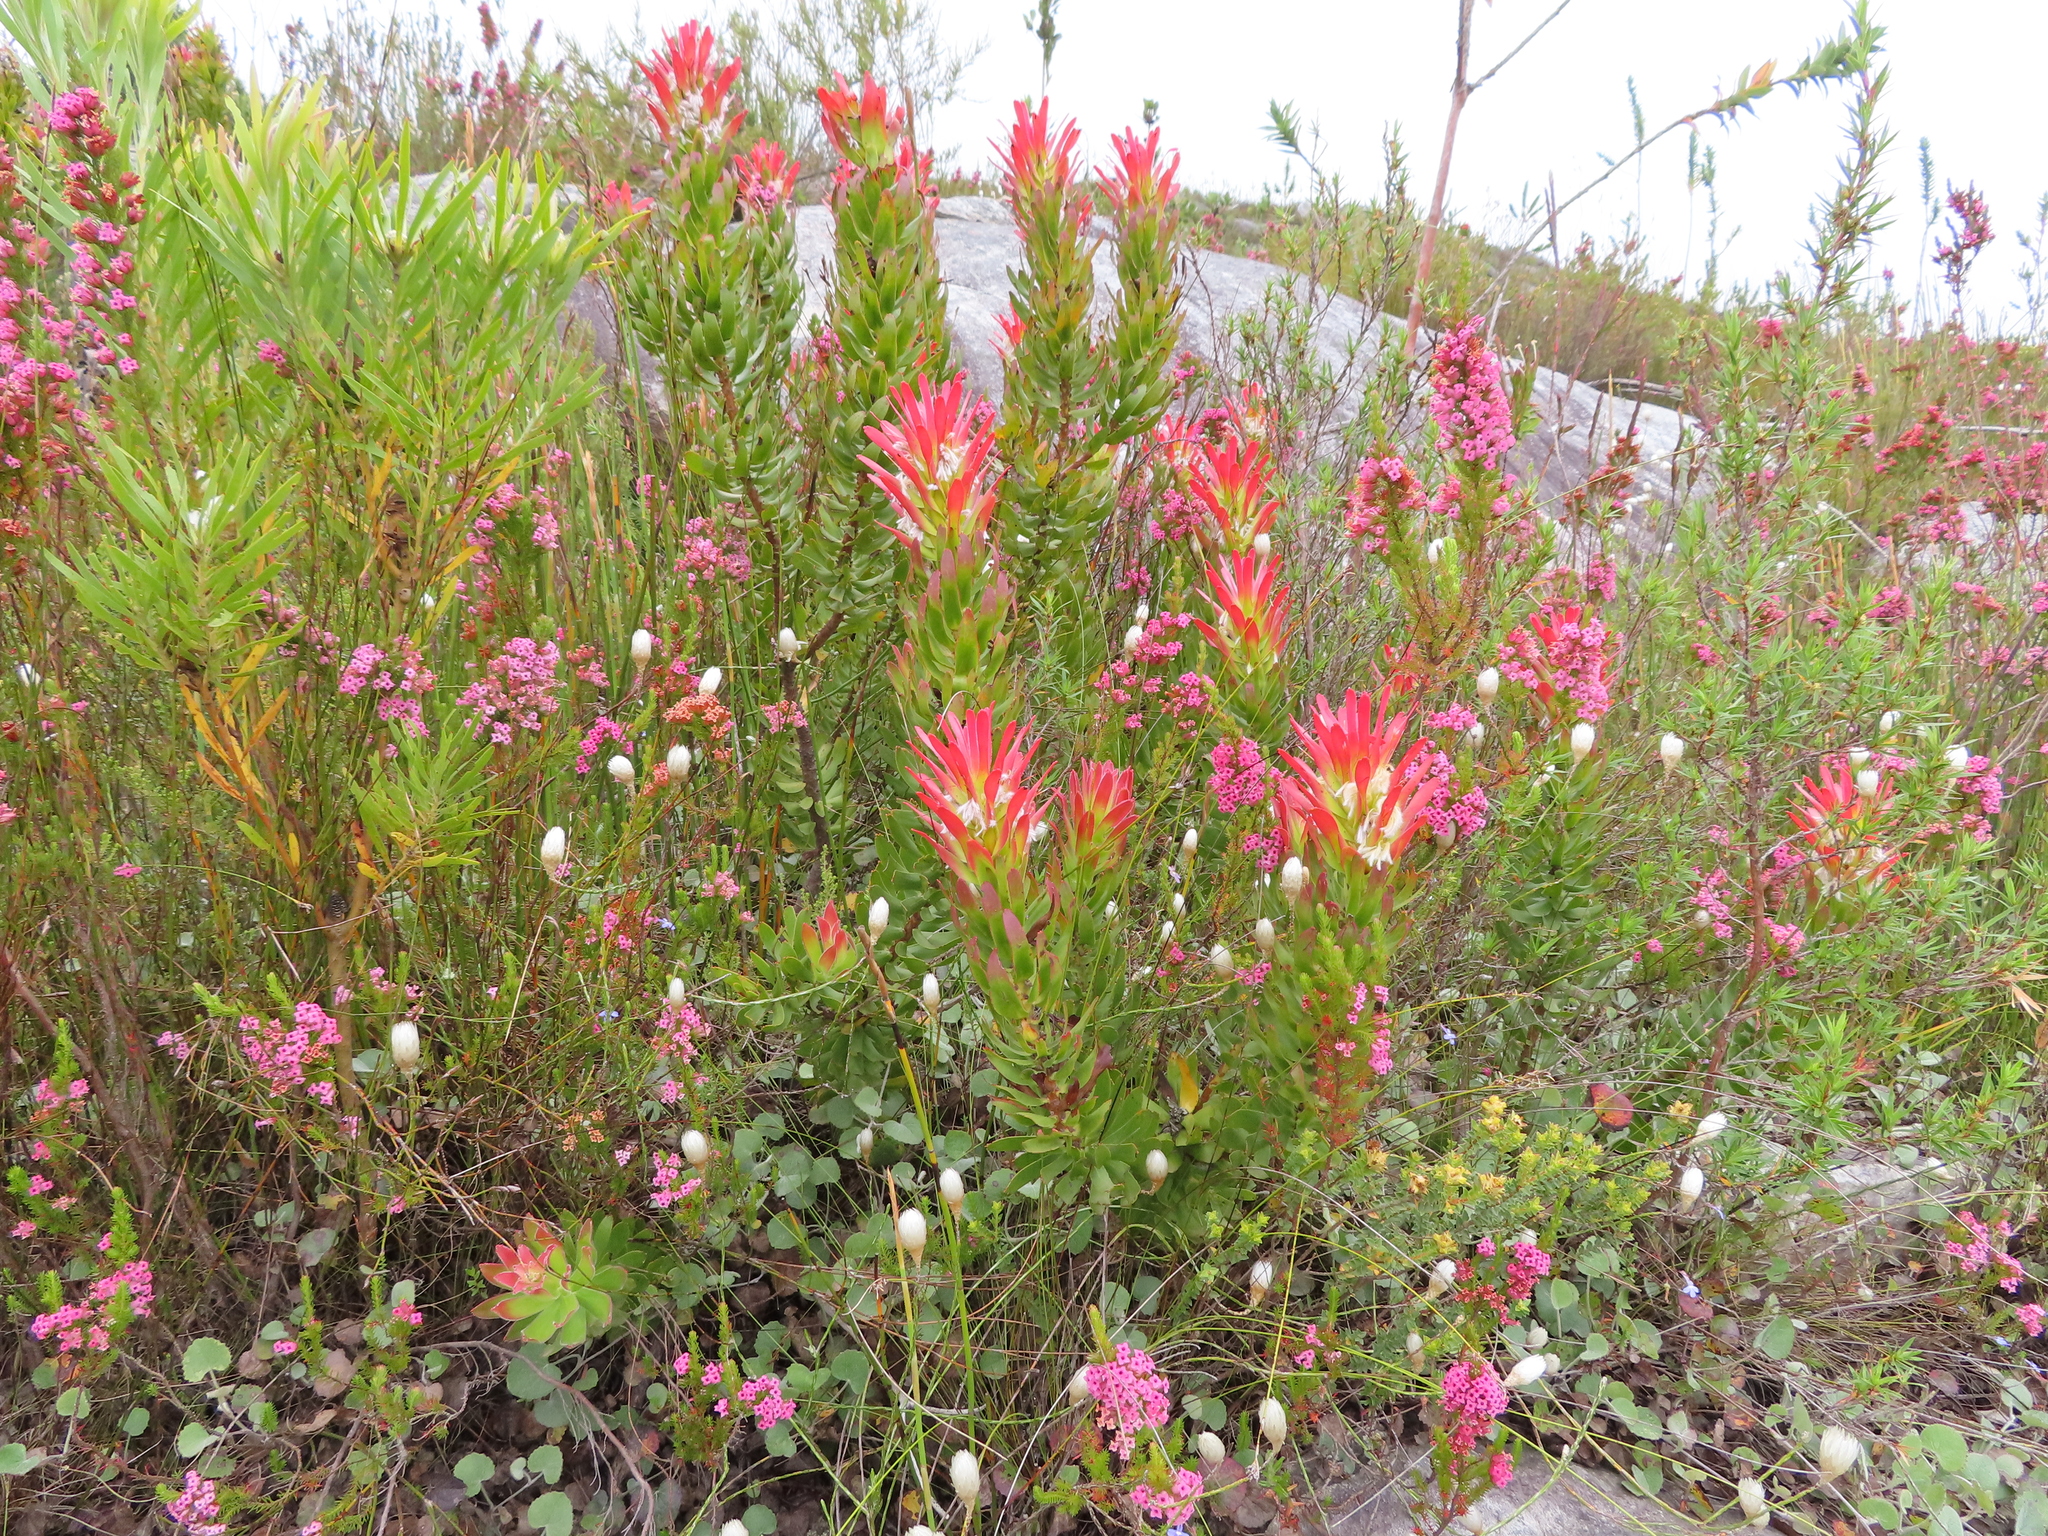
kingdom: Plantae
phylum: Tracheophyta
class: Magnoliopsida
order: Proteales
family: Proteaceae
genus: Mimetes
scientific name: Mimetes cucullatus
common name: Common pagoda
